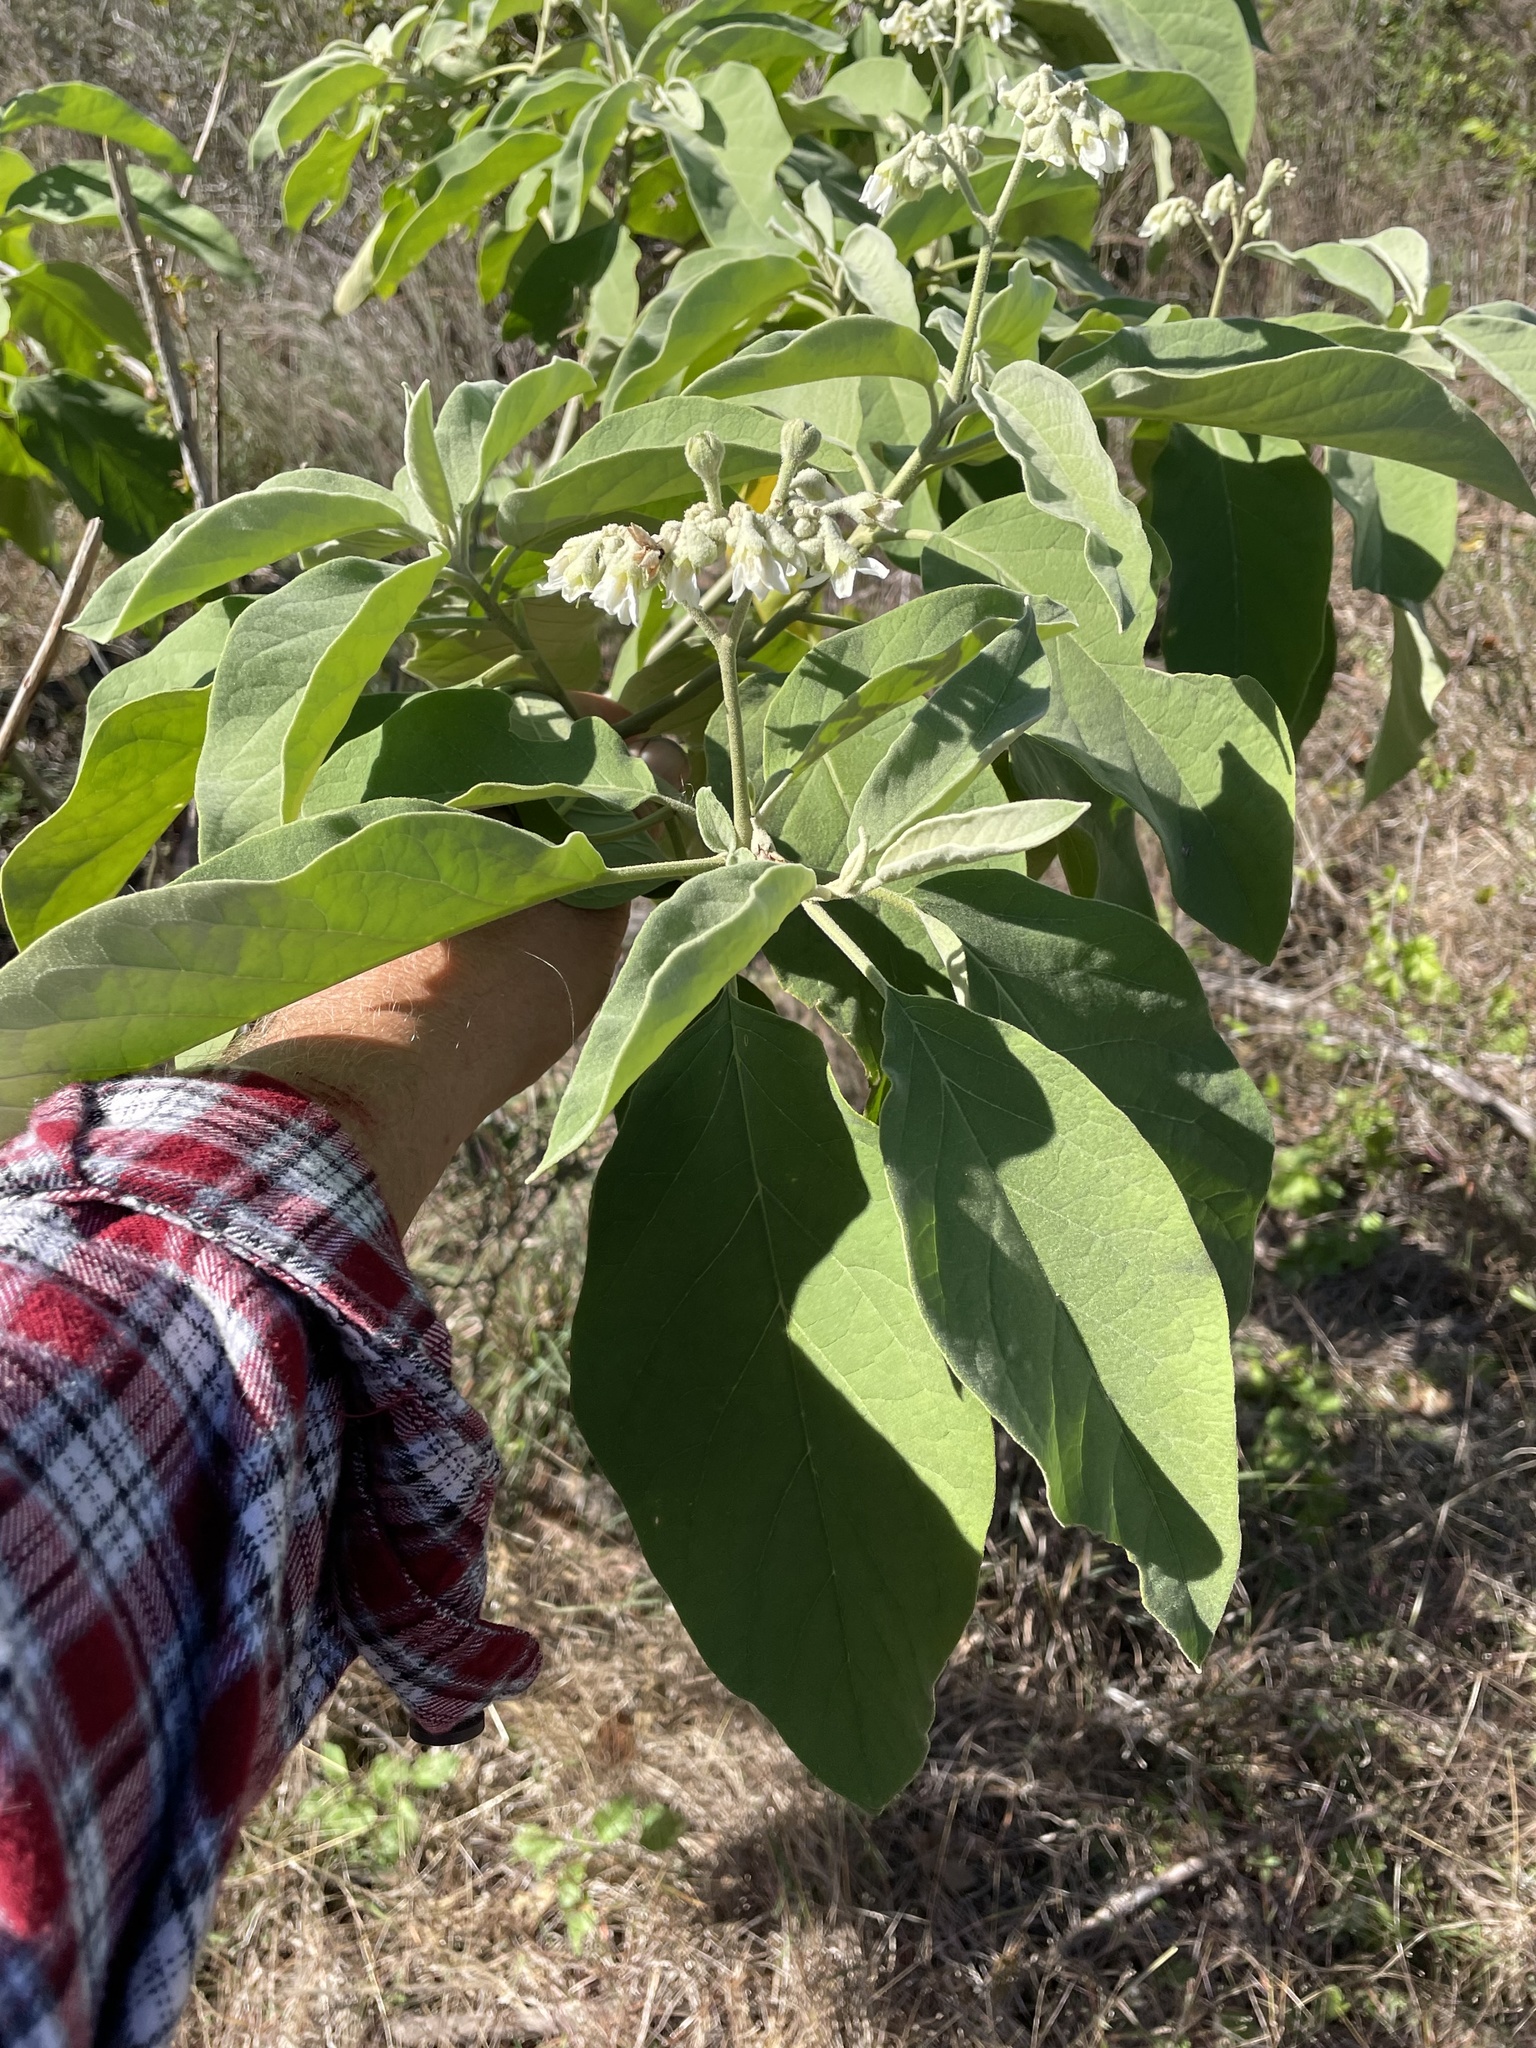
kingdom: Plantae
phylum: Tracheophyta
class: Magnoliopsida
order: Solanales
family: Solanaceae
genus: Solanum
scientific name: Solanum erianthum
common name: Tobacco-tree
